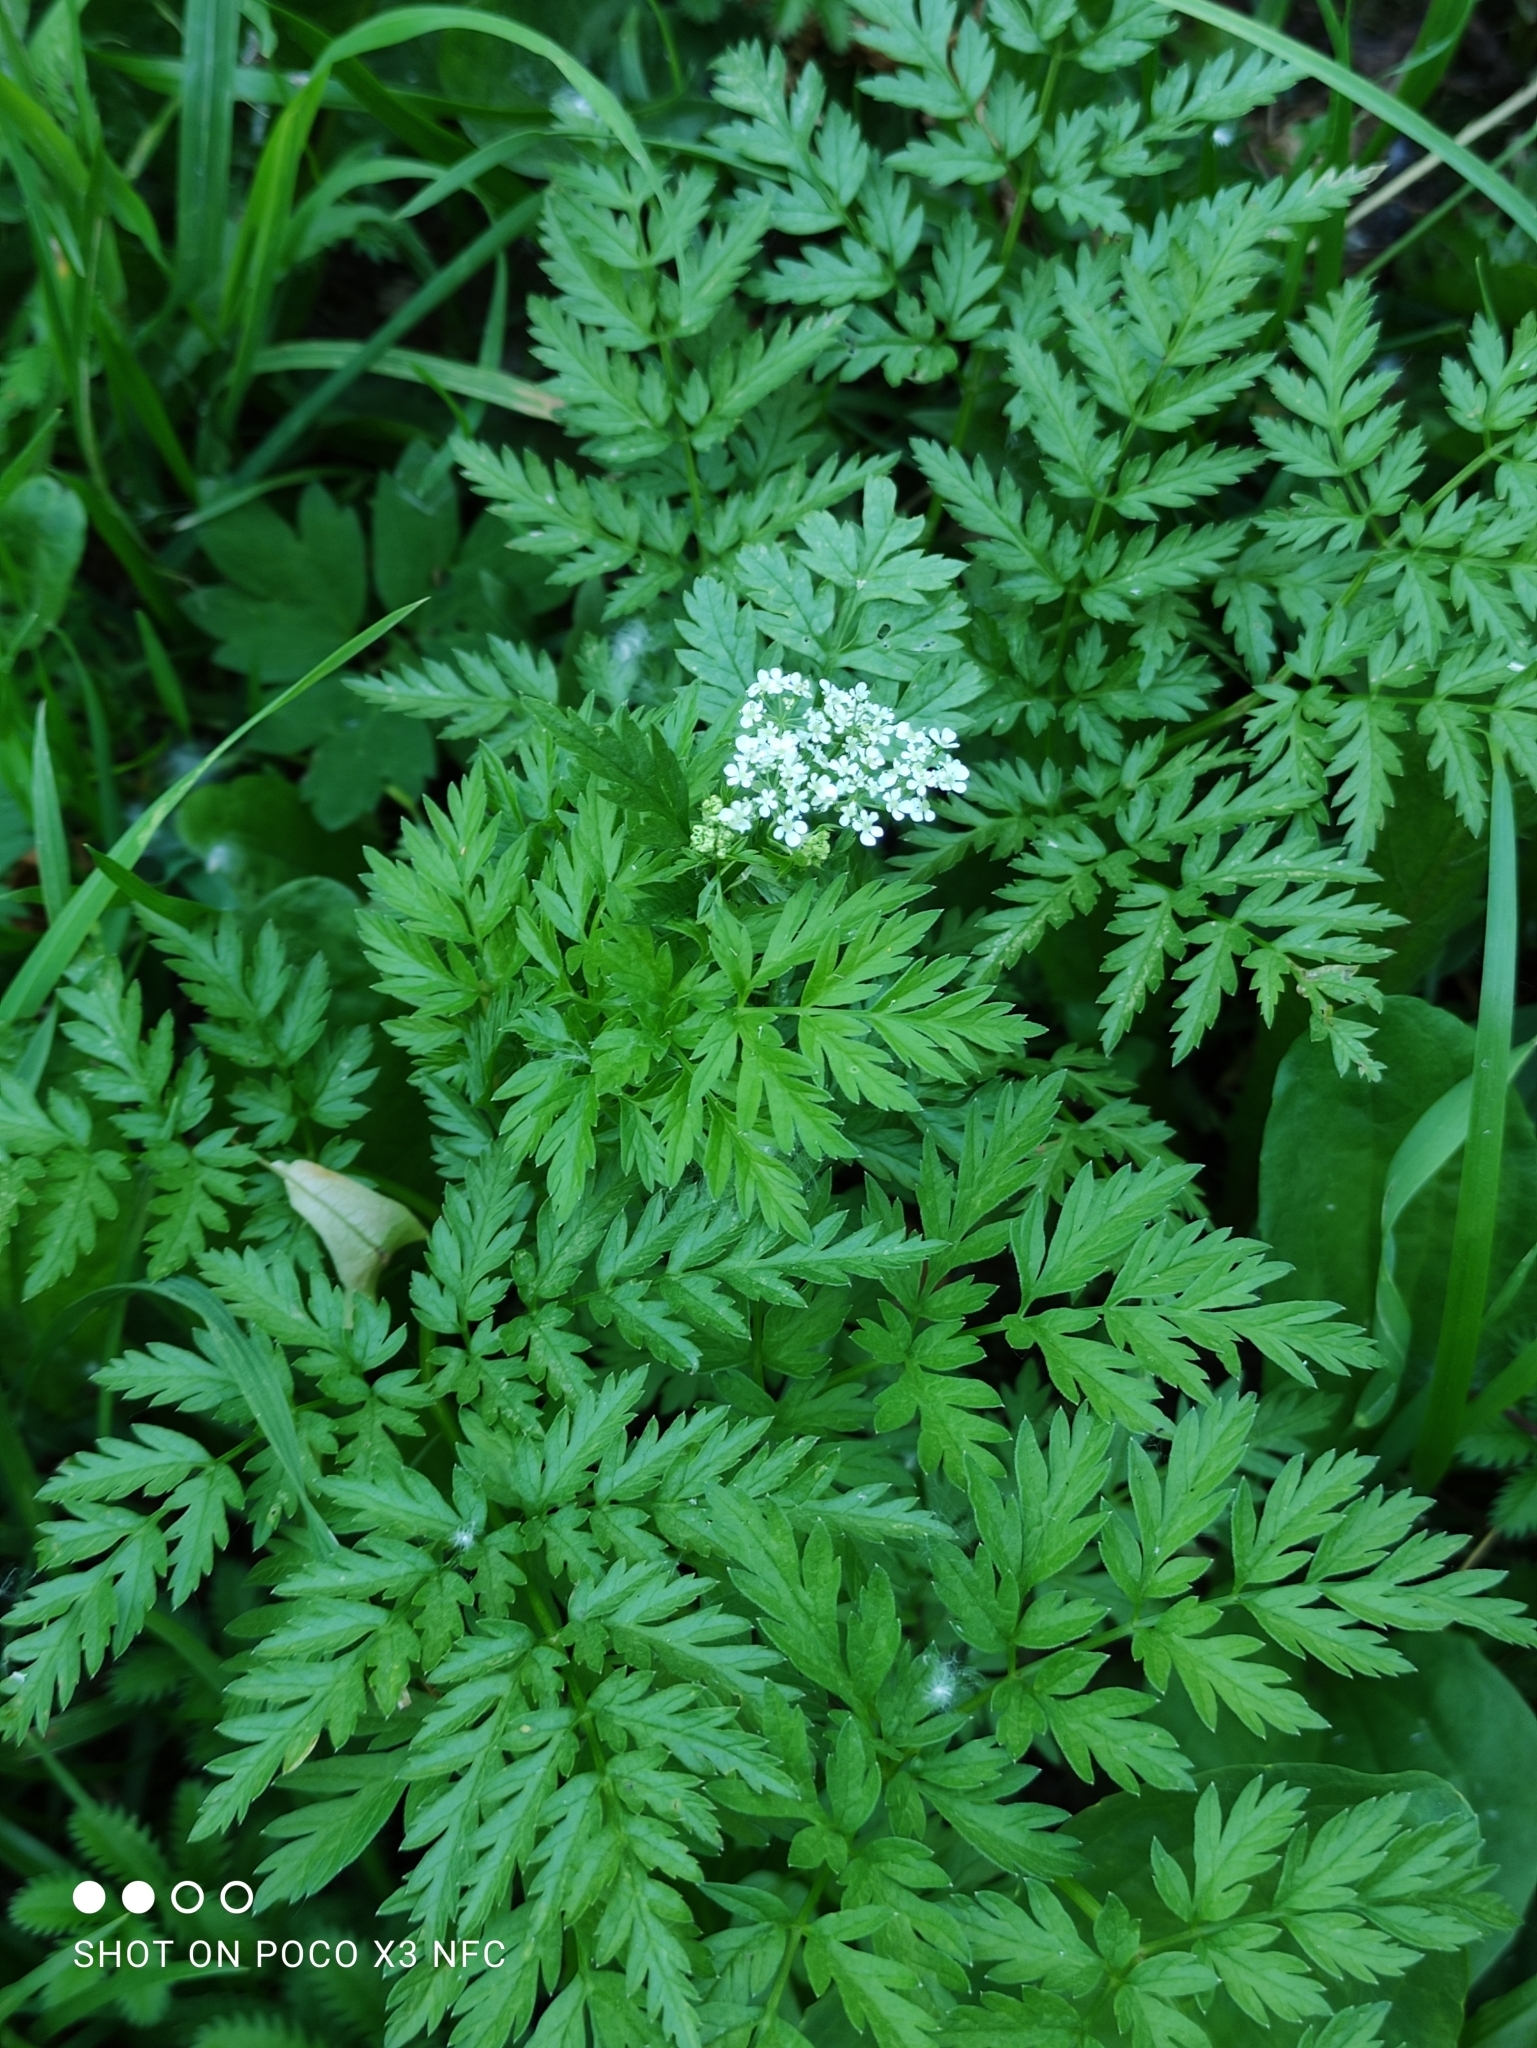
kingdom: Plantae
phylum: Tracheophyta
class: Magnoliopsida
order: Apiales
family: Apiaceae
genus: Anthriscus
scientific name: Anthriscus sylvestris
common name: Cow parsley
